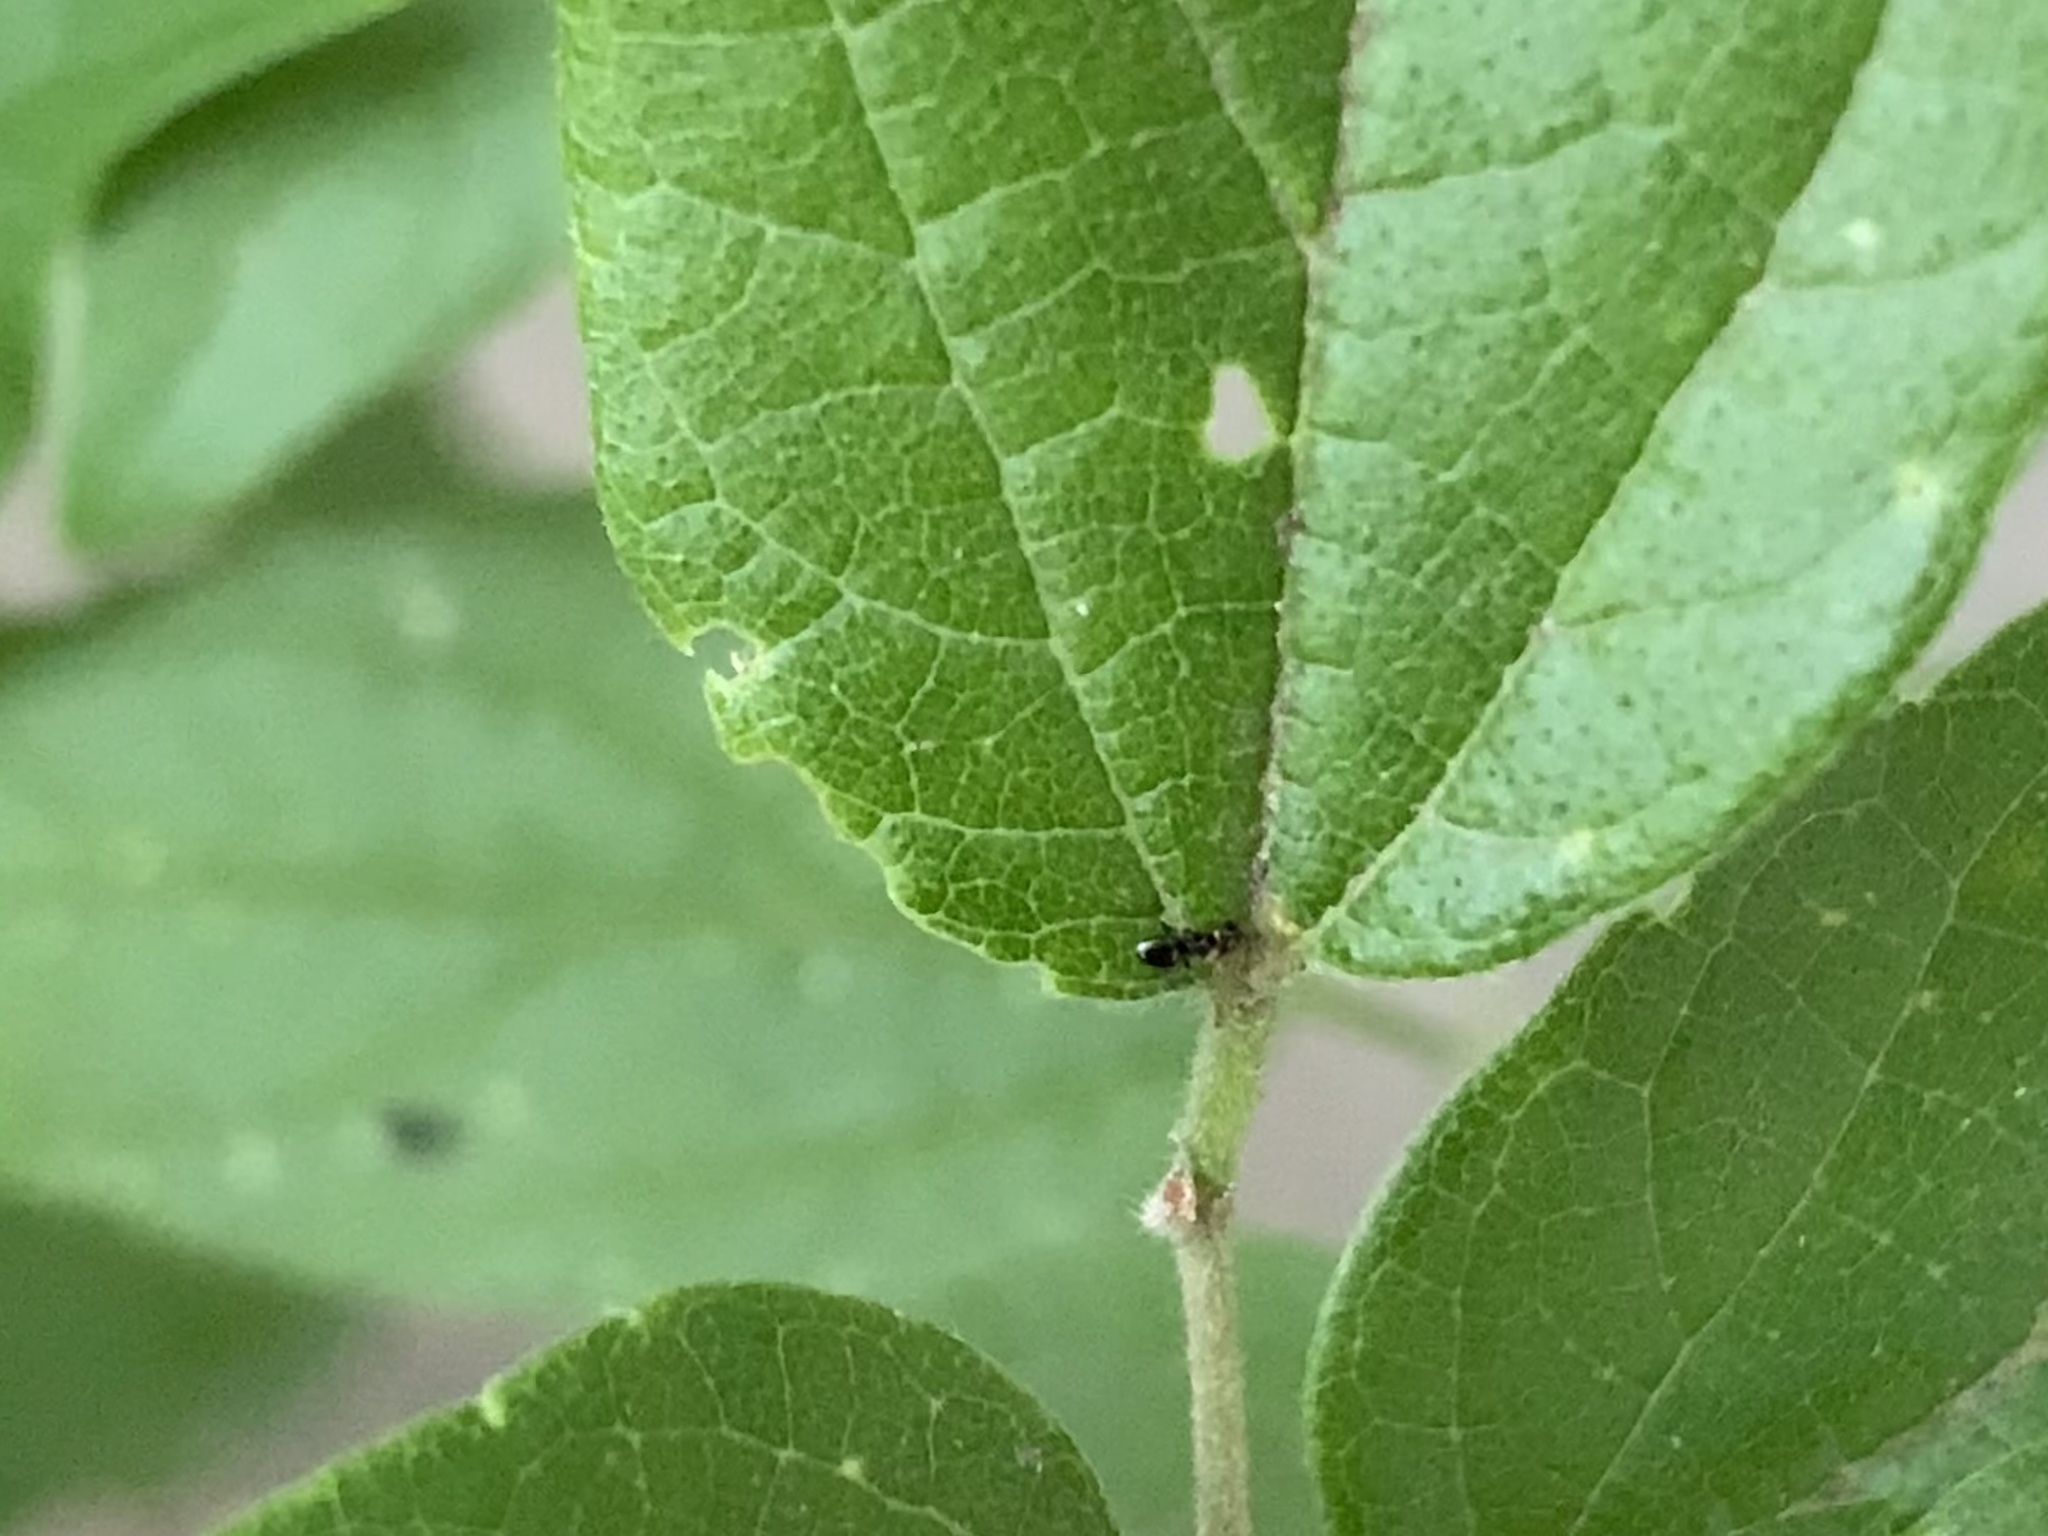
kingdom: Animalia
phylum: Arthropoda
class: Insecta
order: Hymenoptera
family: Formicidae
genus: Brachymyrmex
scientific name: Brachymyrmex patagonicus
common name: Dark rover ant
